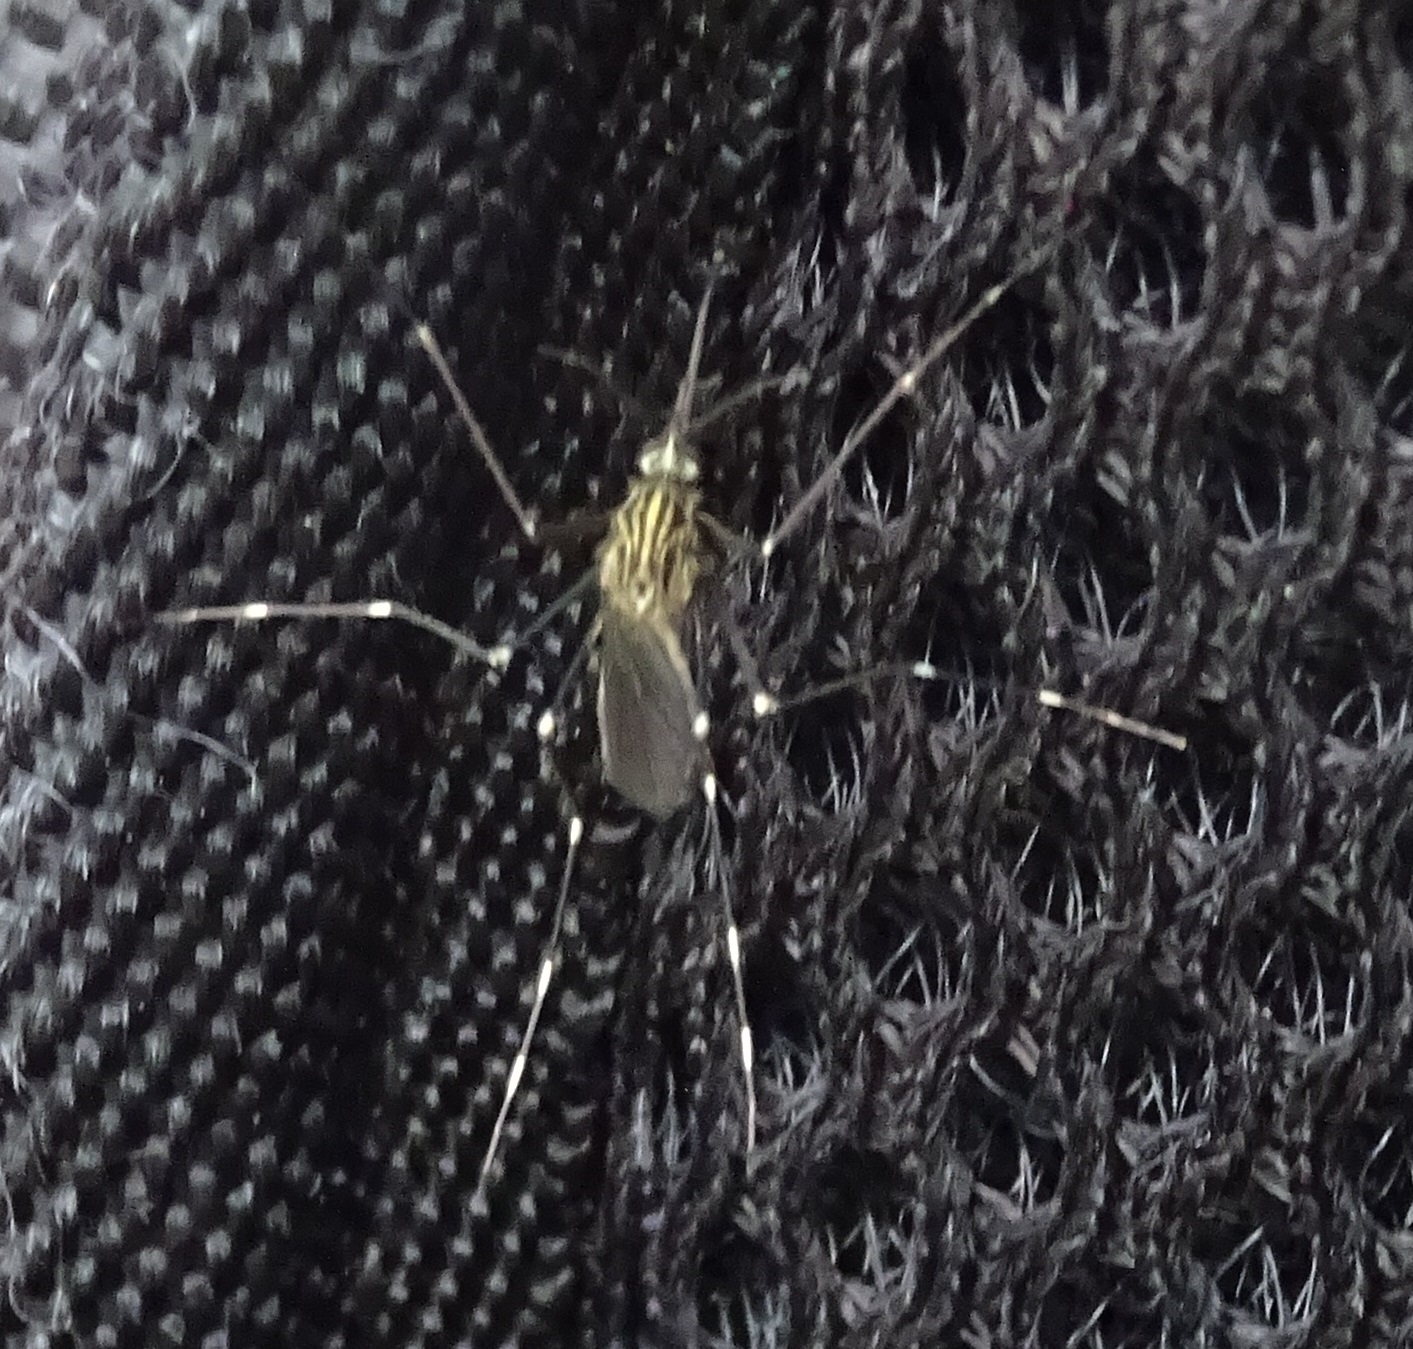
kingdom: Animalia
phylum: Arthropoda
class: Insecta
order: Diptera
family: Culicidae
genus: Aedes
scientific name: Aedes japonicus
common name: Asian bush mosquito
